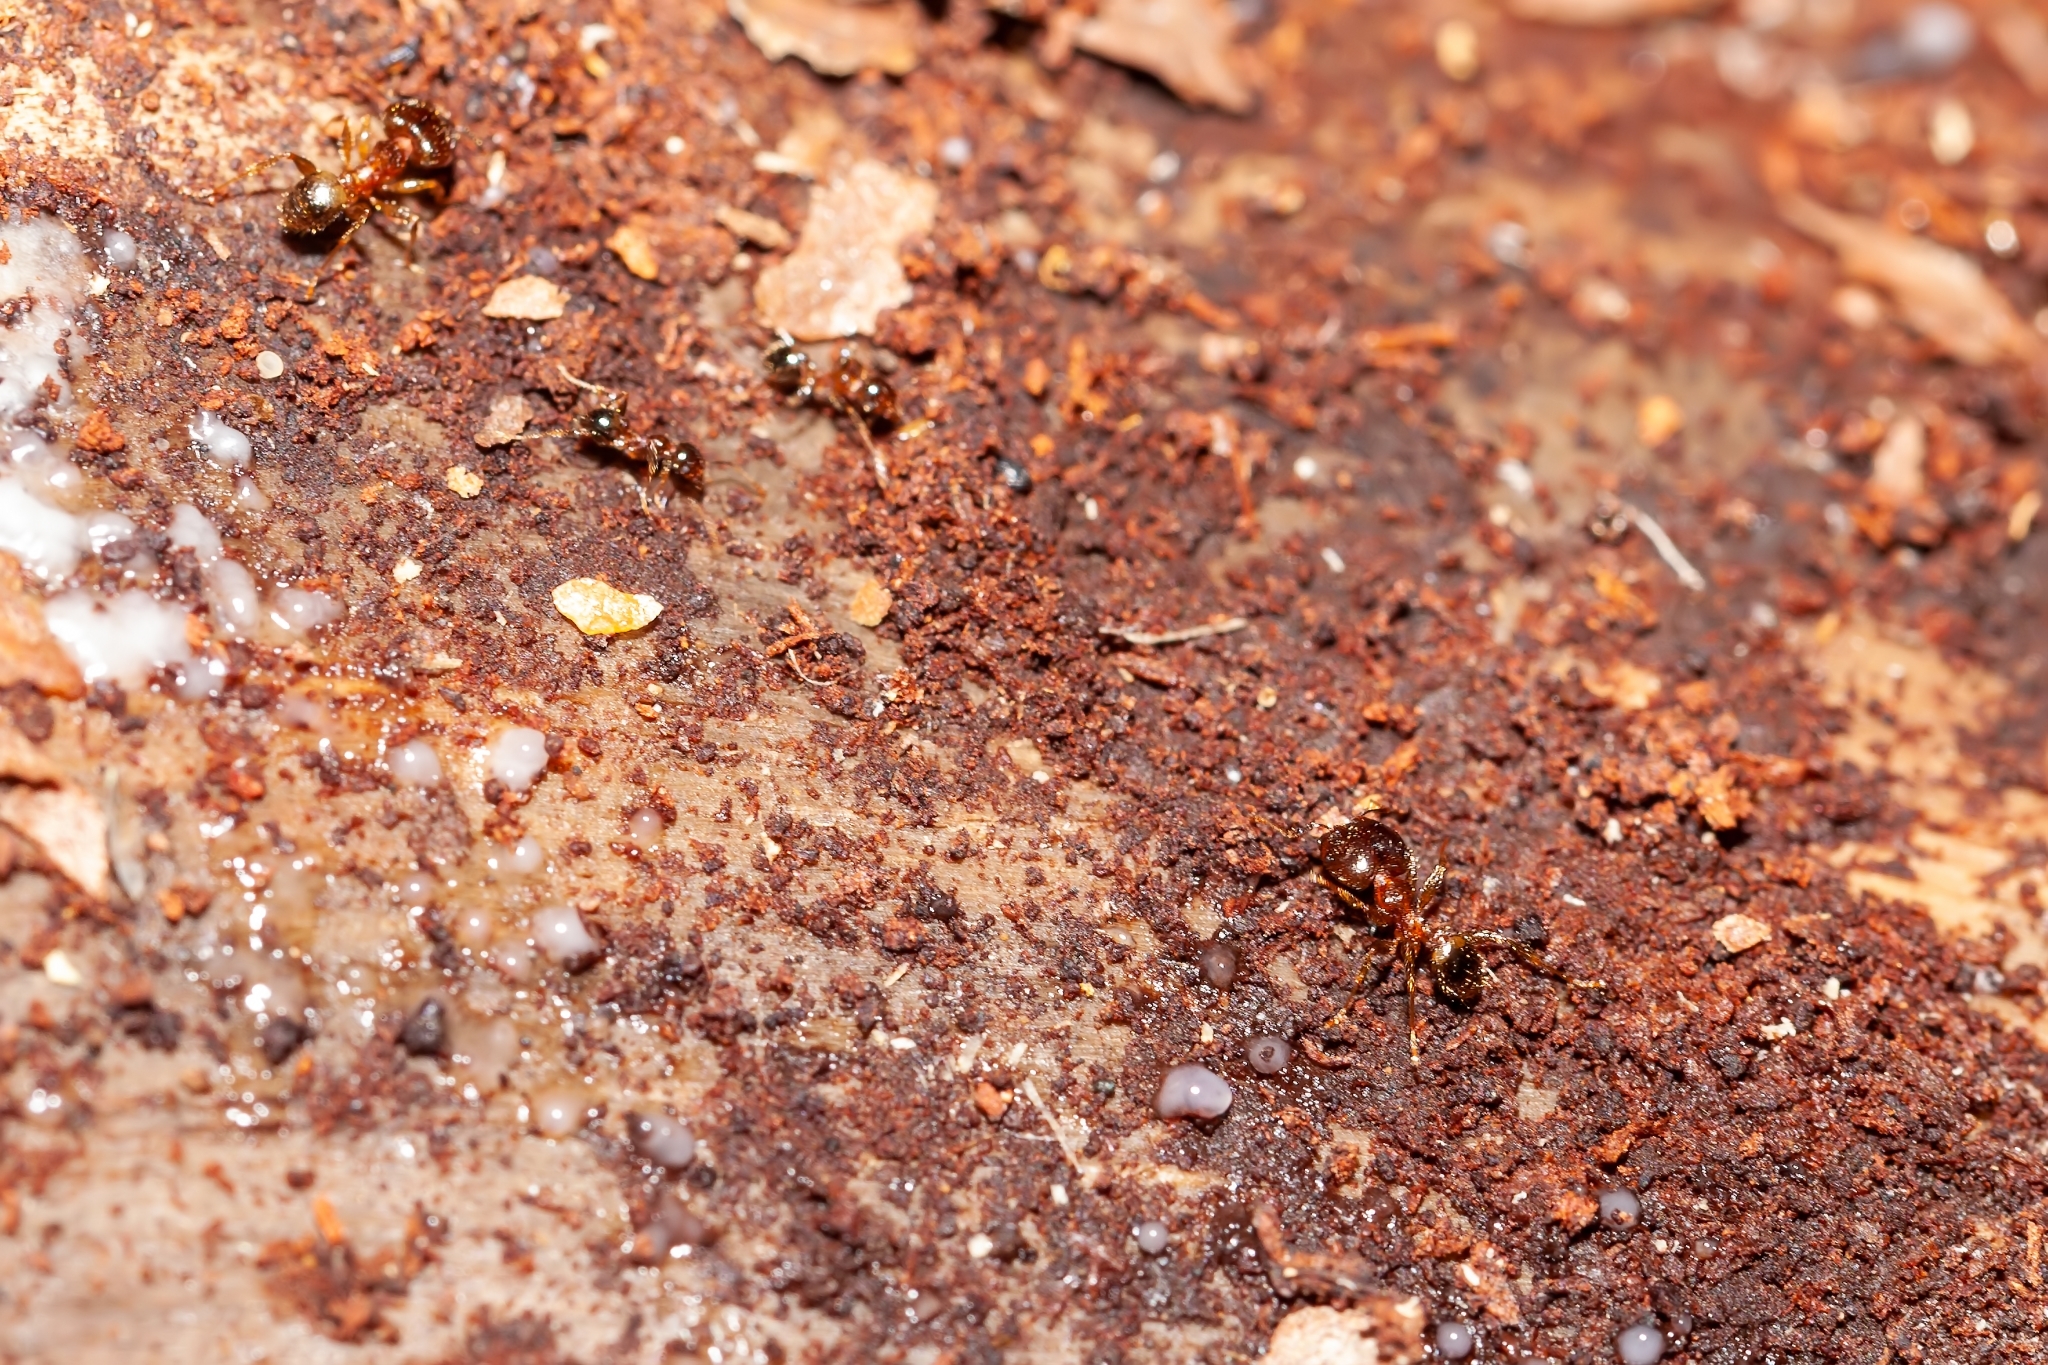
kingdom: Animalia
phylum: Arthropoda
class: Insecta
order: Hymenoptera
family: Formicidae
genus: Pheidole
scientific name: Pheidole megacephala
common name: Bigheaded ant
